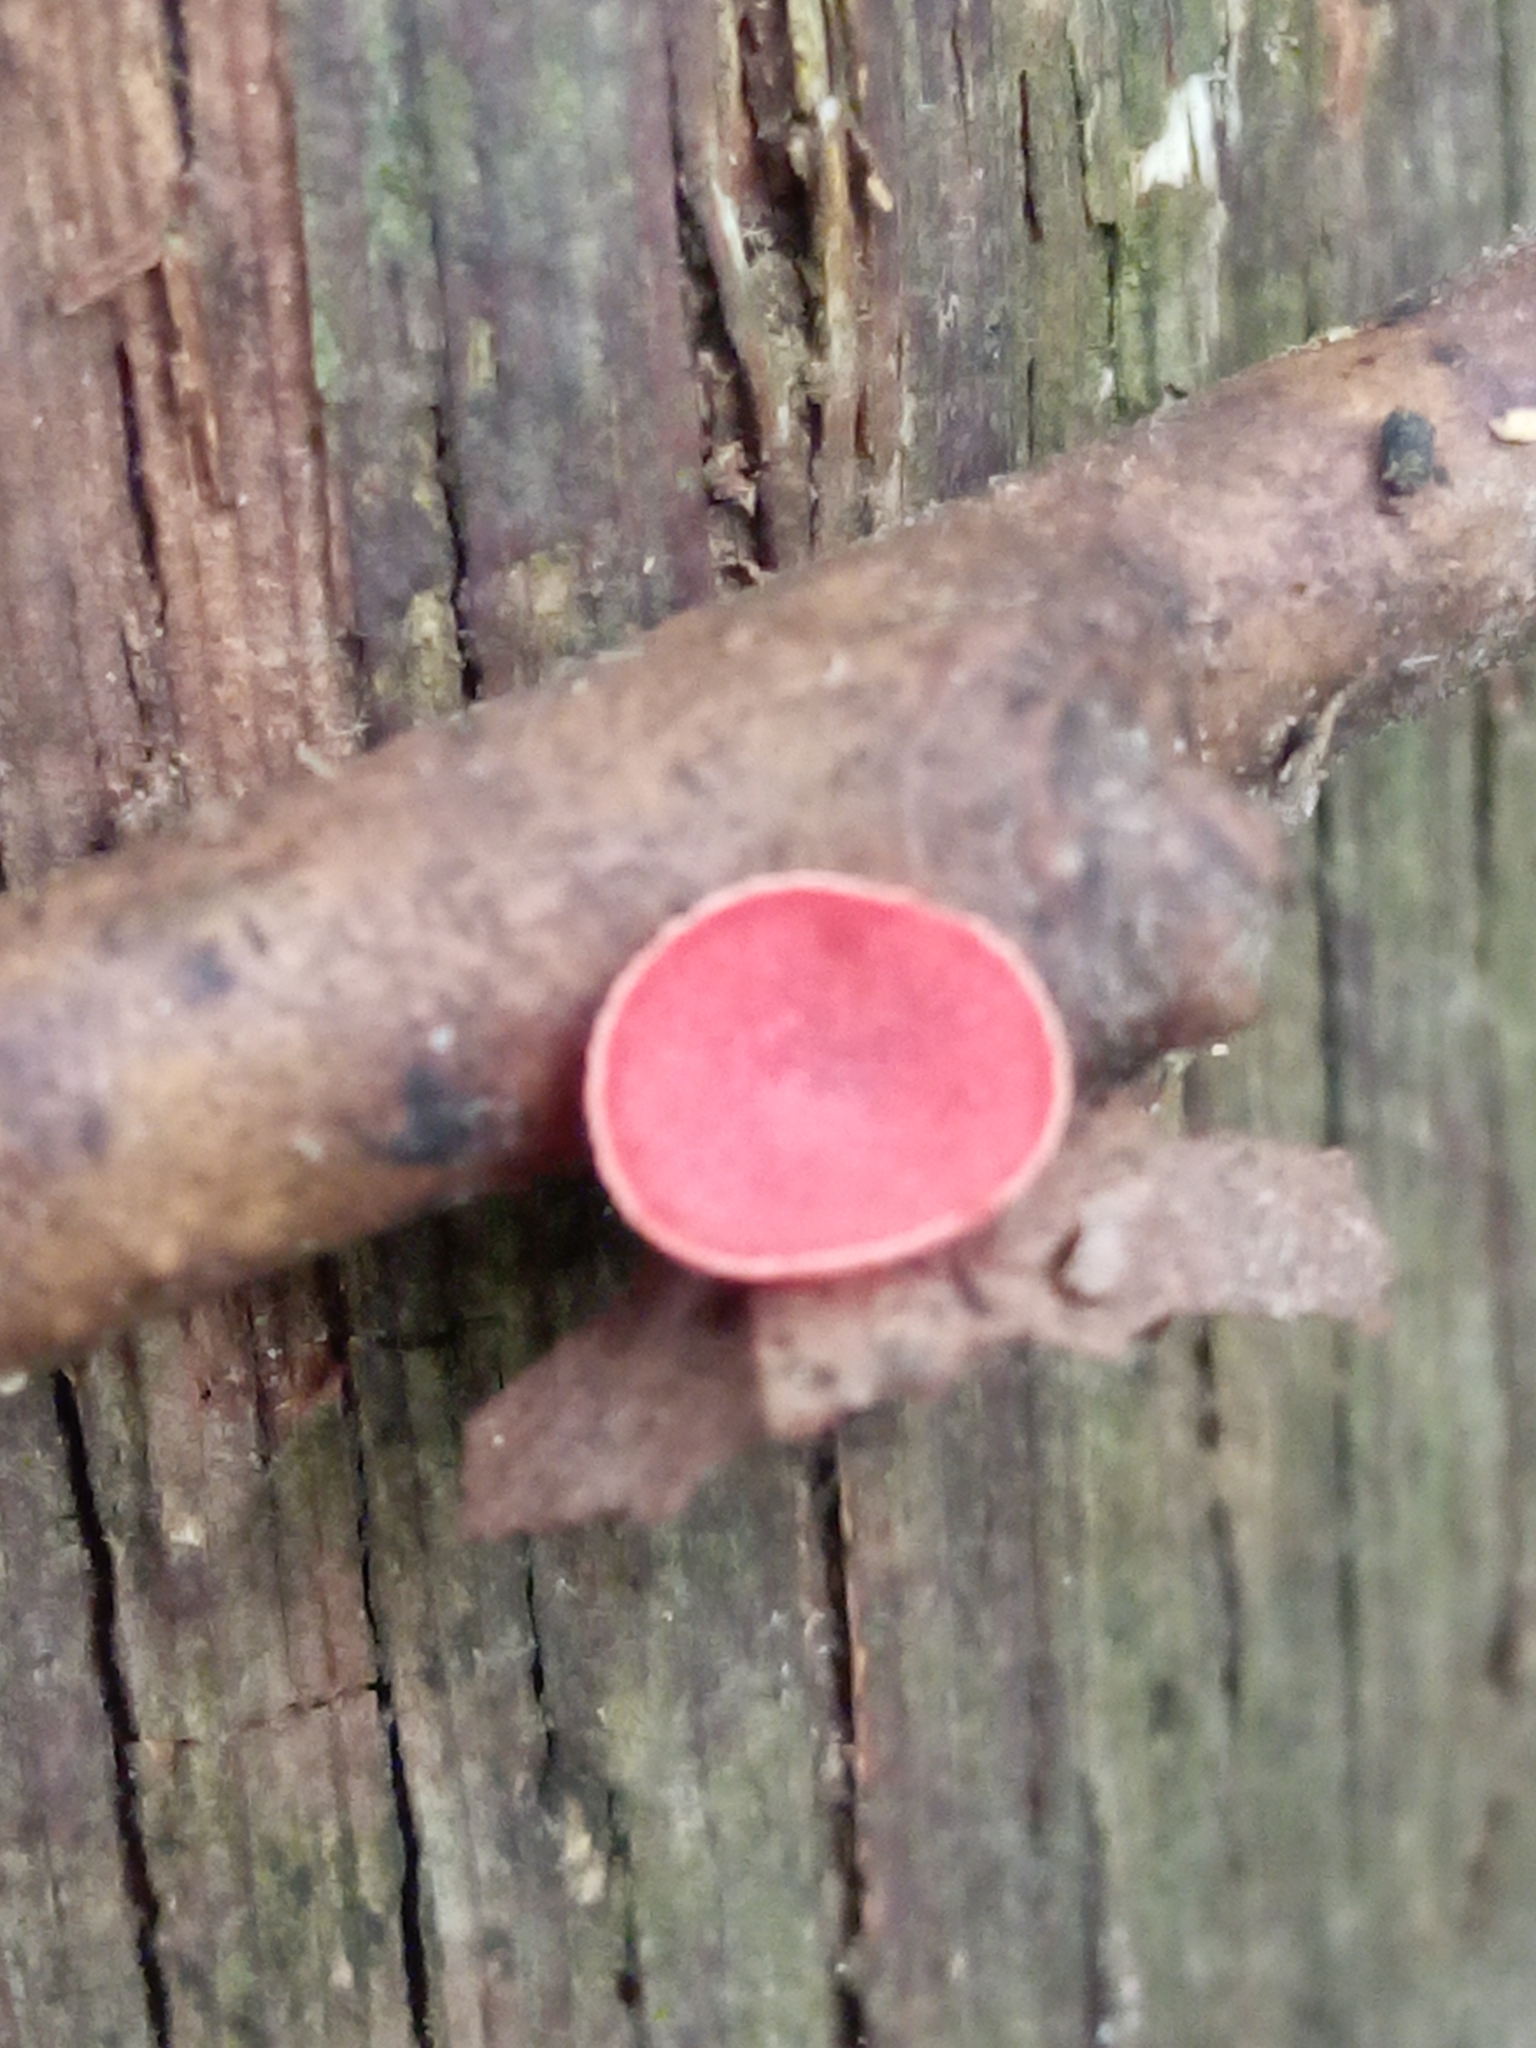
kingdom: Fungi
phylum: Ascomycota
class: Pezizomycetes
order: Pezizales
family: Sarcoscyphaceae
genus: Sarcoscypha
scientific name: Sarcoscypha occidentalis
